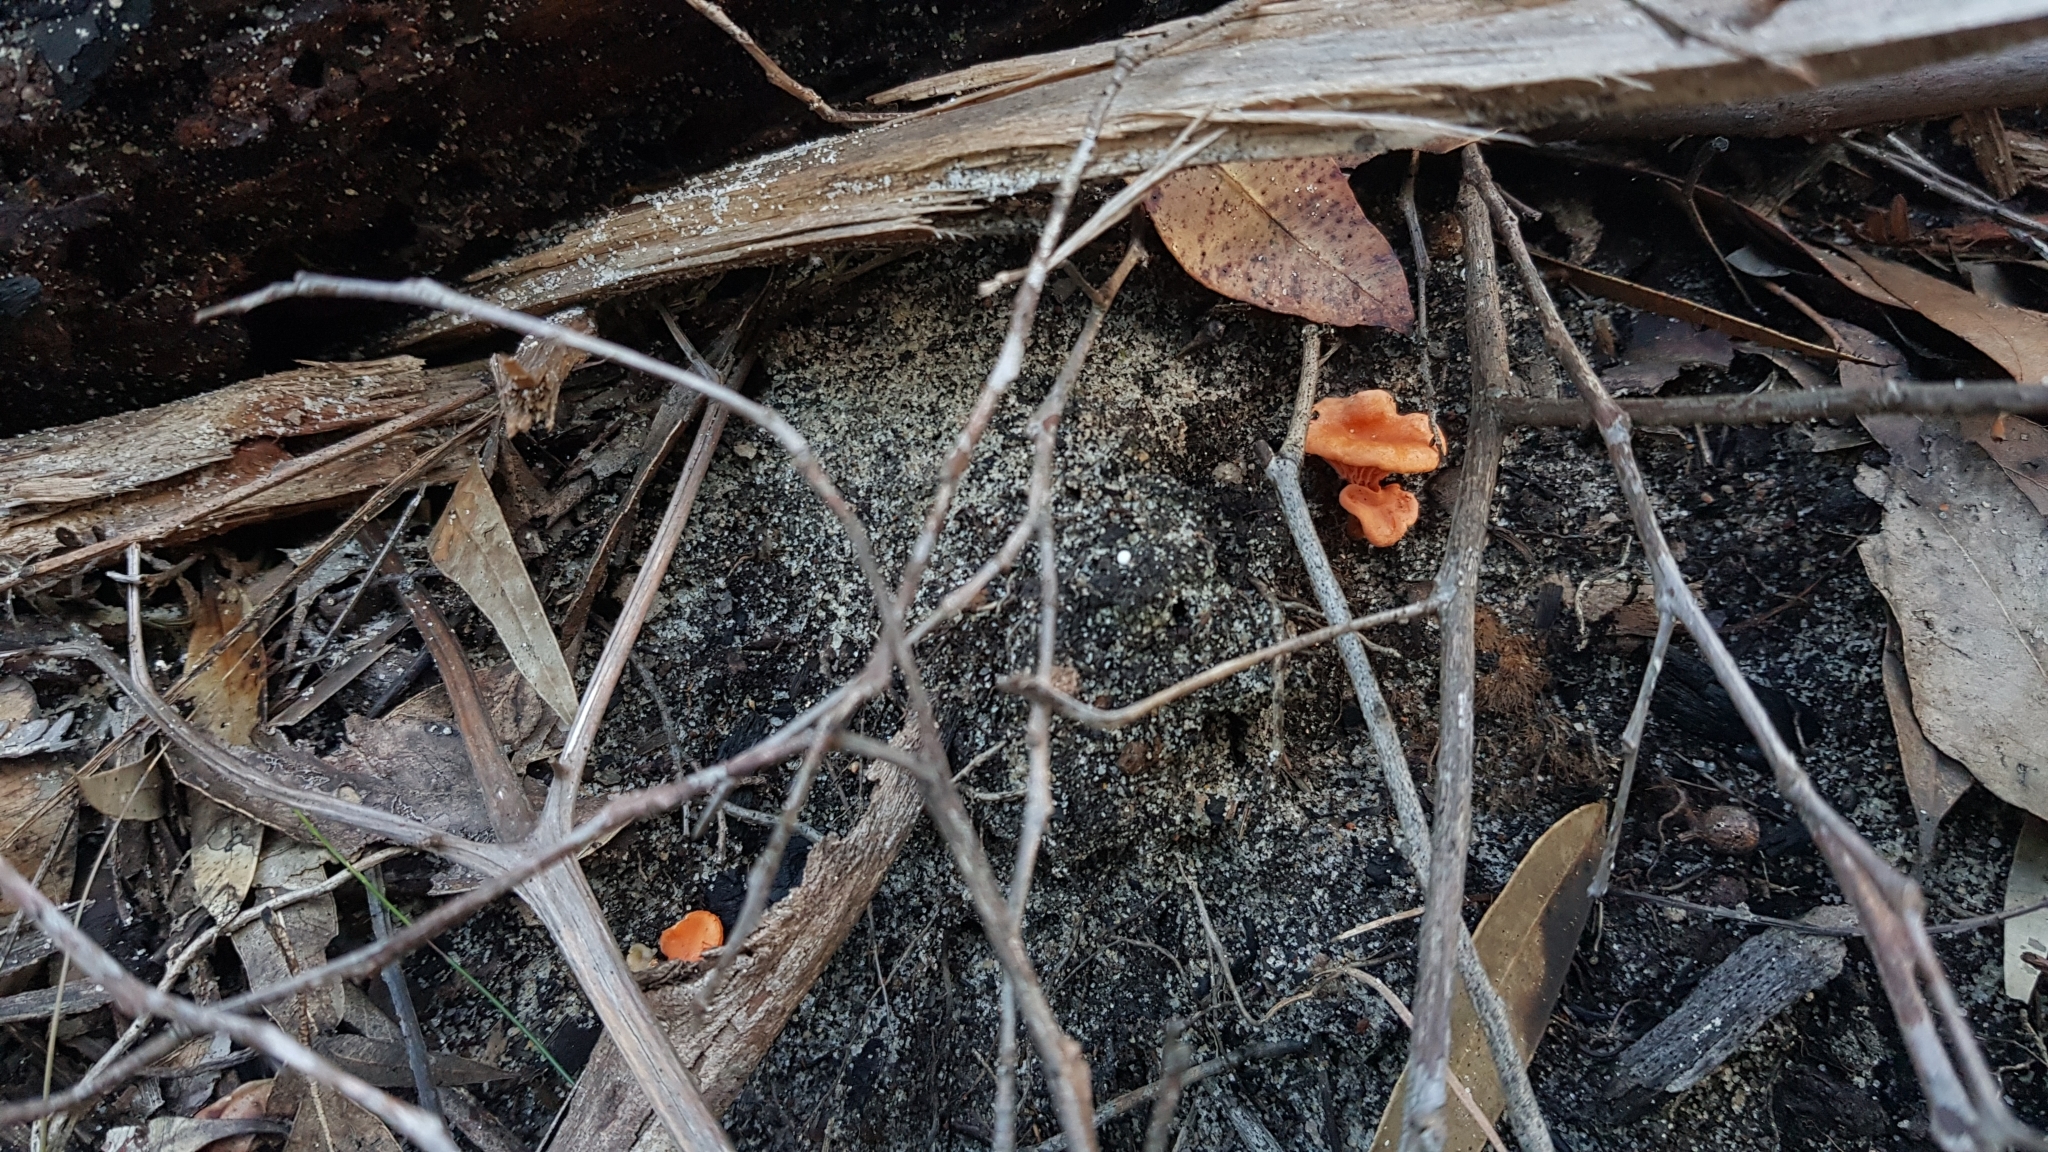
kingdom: Fungi
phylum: Basidiomycota
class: Agaricomycetes
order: Cantharellales
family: Hydnaceae
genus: Cantharellus
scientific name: Cantharellus
